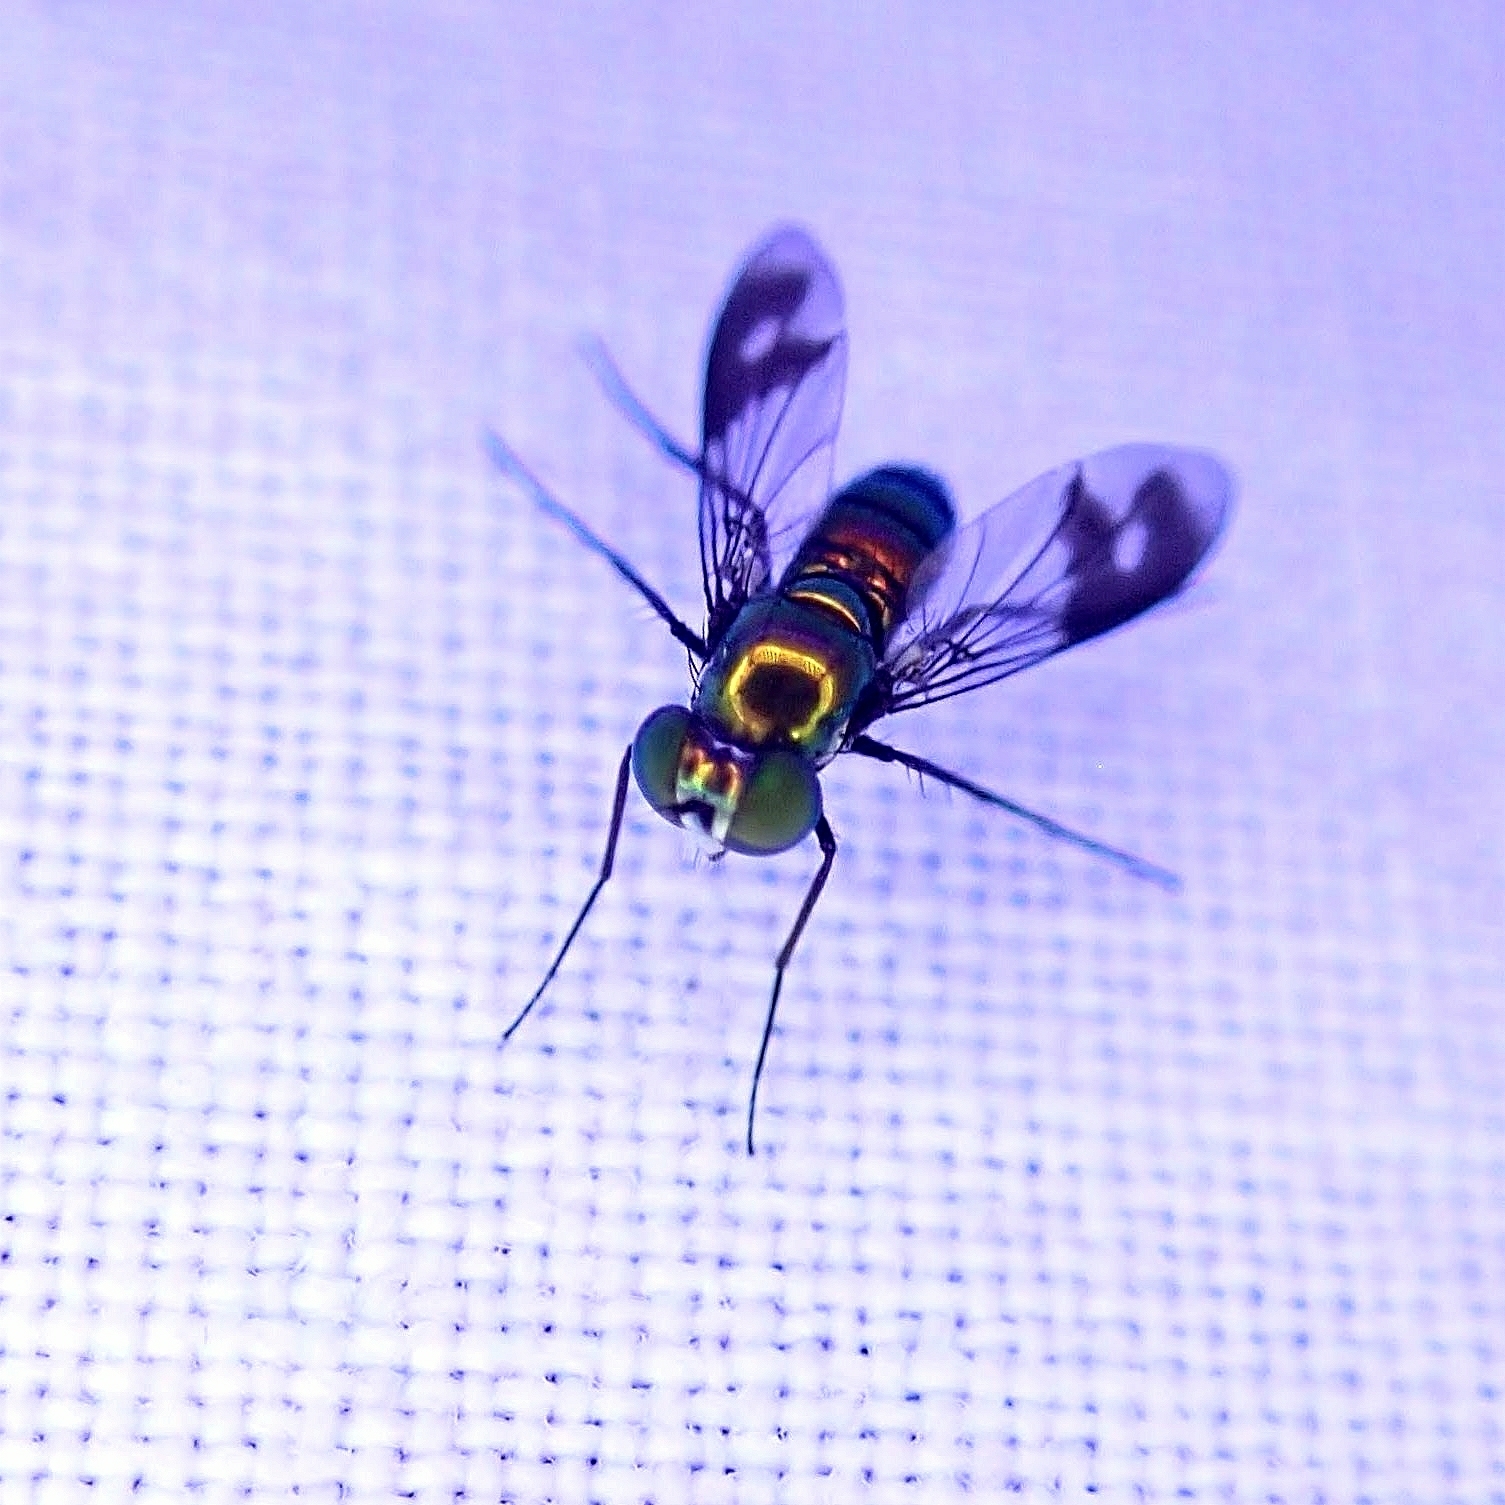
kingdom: Animalia
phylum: Arthropoda
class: Insecta
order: Diptera
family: Dolichopodidae
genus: Condylostylus
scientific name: Condylostylus patibulatus
